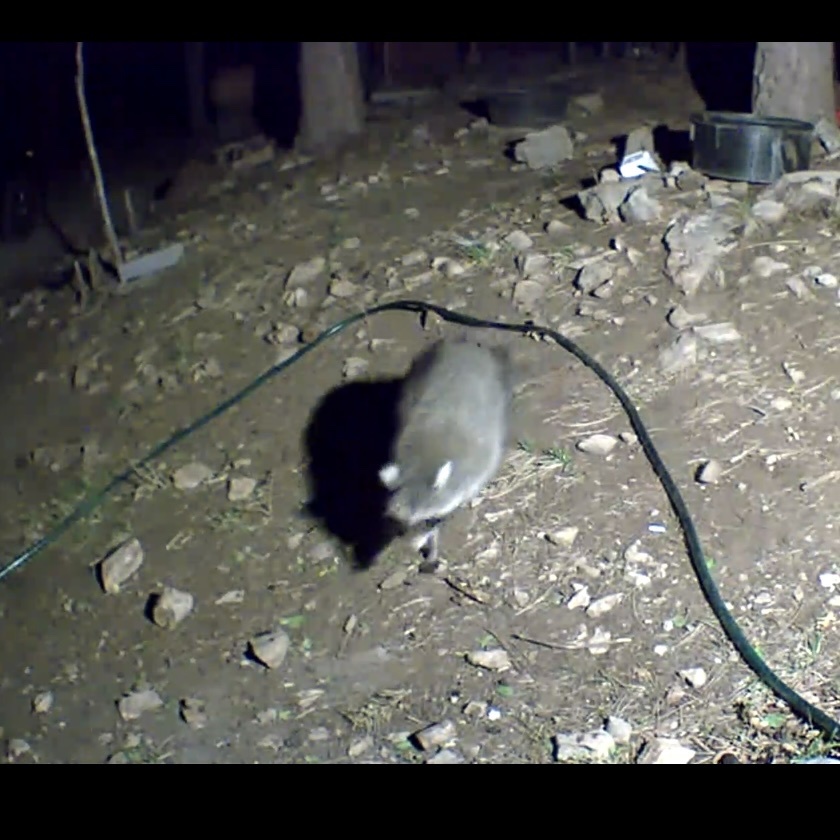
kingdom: Animalia
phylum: Chordata
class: Mammalia
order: Carnivora
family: Procyonidae
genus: Procyon
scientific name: Procyon lotor
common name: Raccoon
